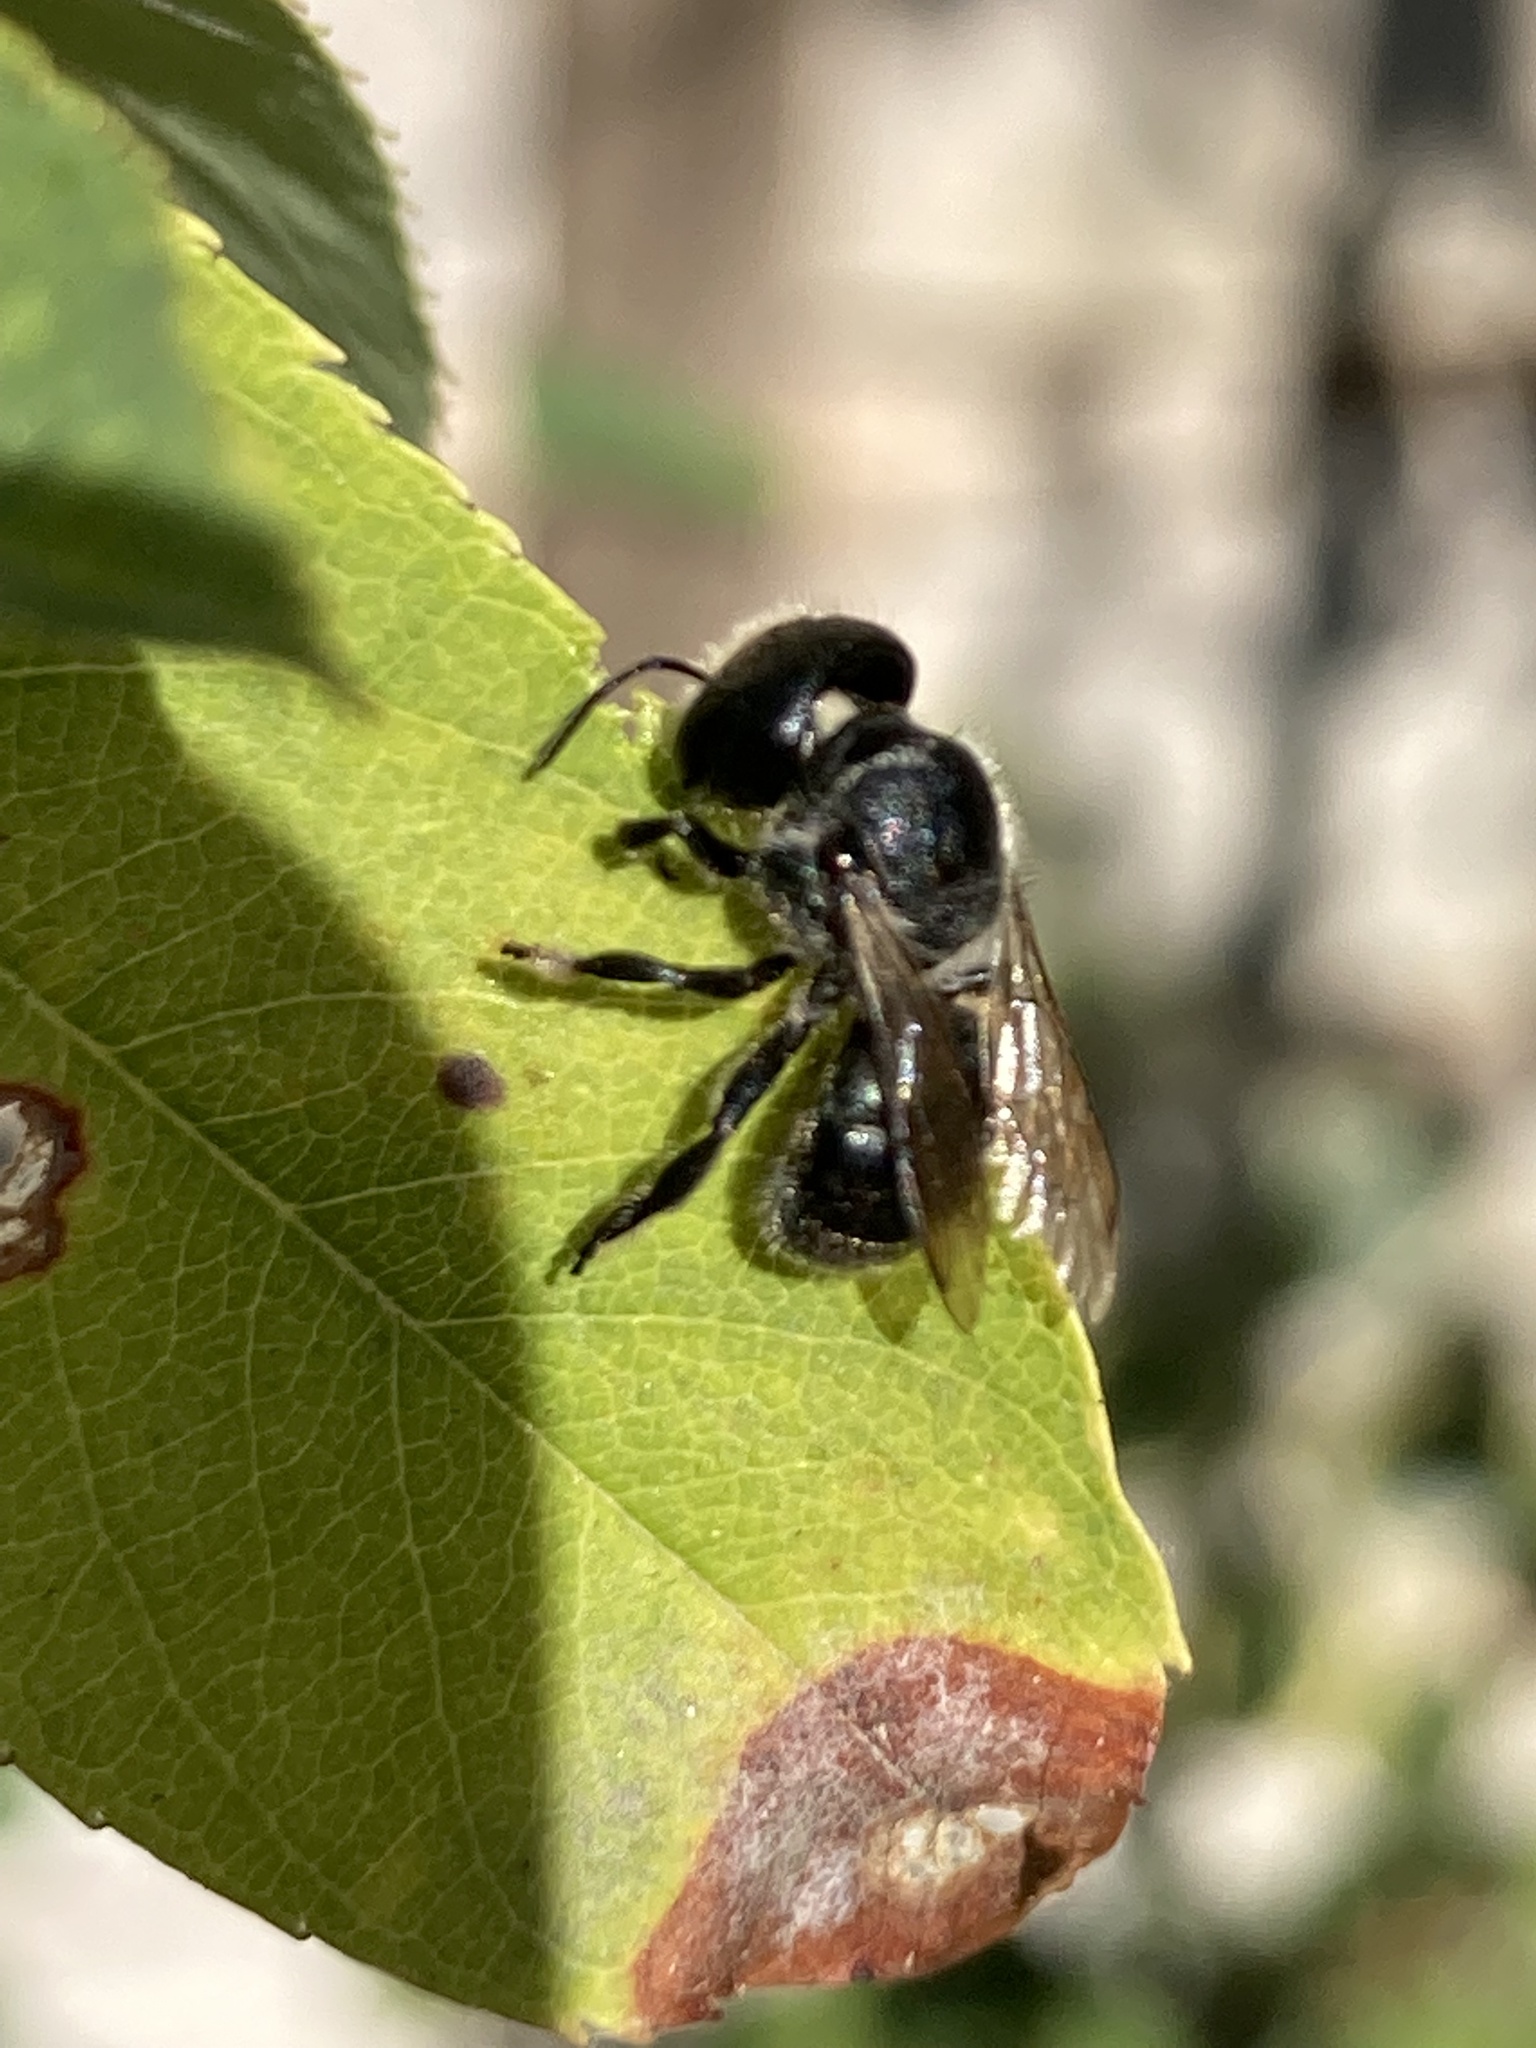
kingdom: Animalia
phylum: Arthropoda
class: Insecta
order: Hymenoptera
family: Megachilidae
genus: Osmia
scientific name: Osmia caerulescens
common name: Blue mason bee
